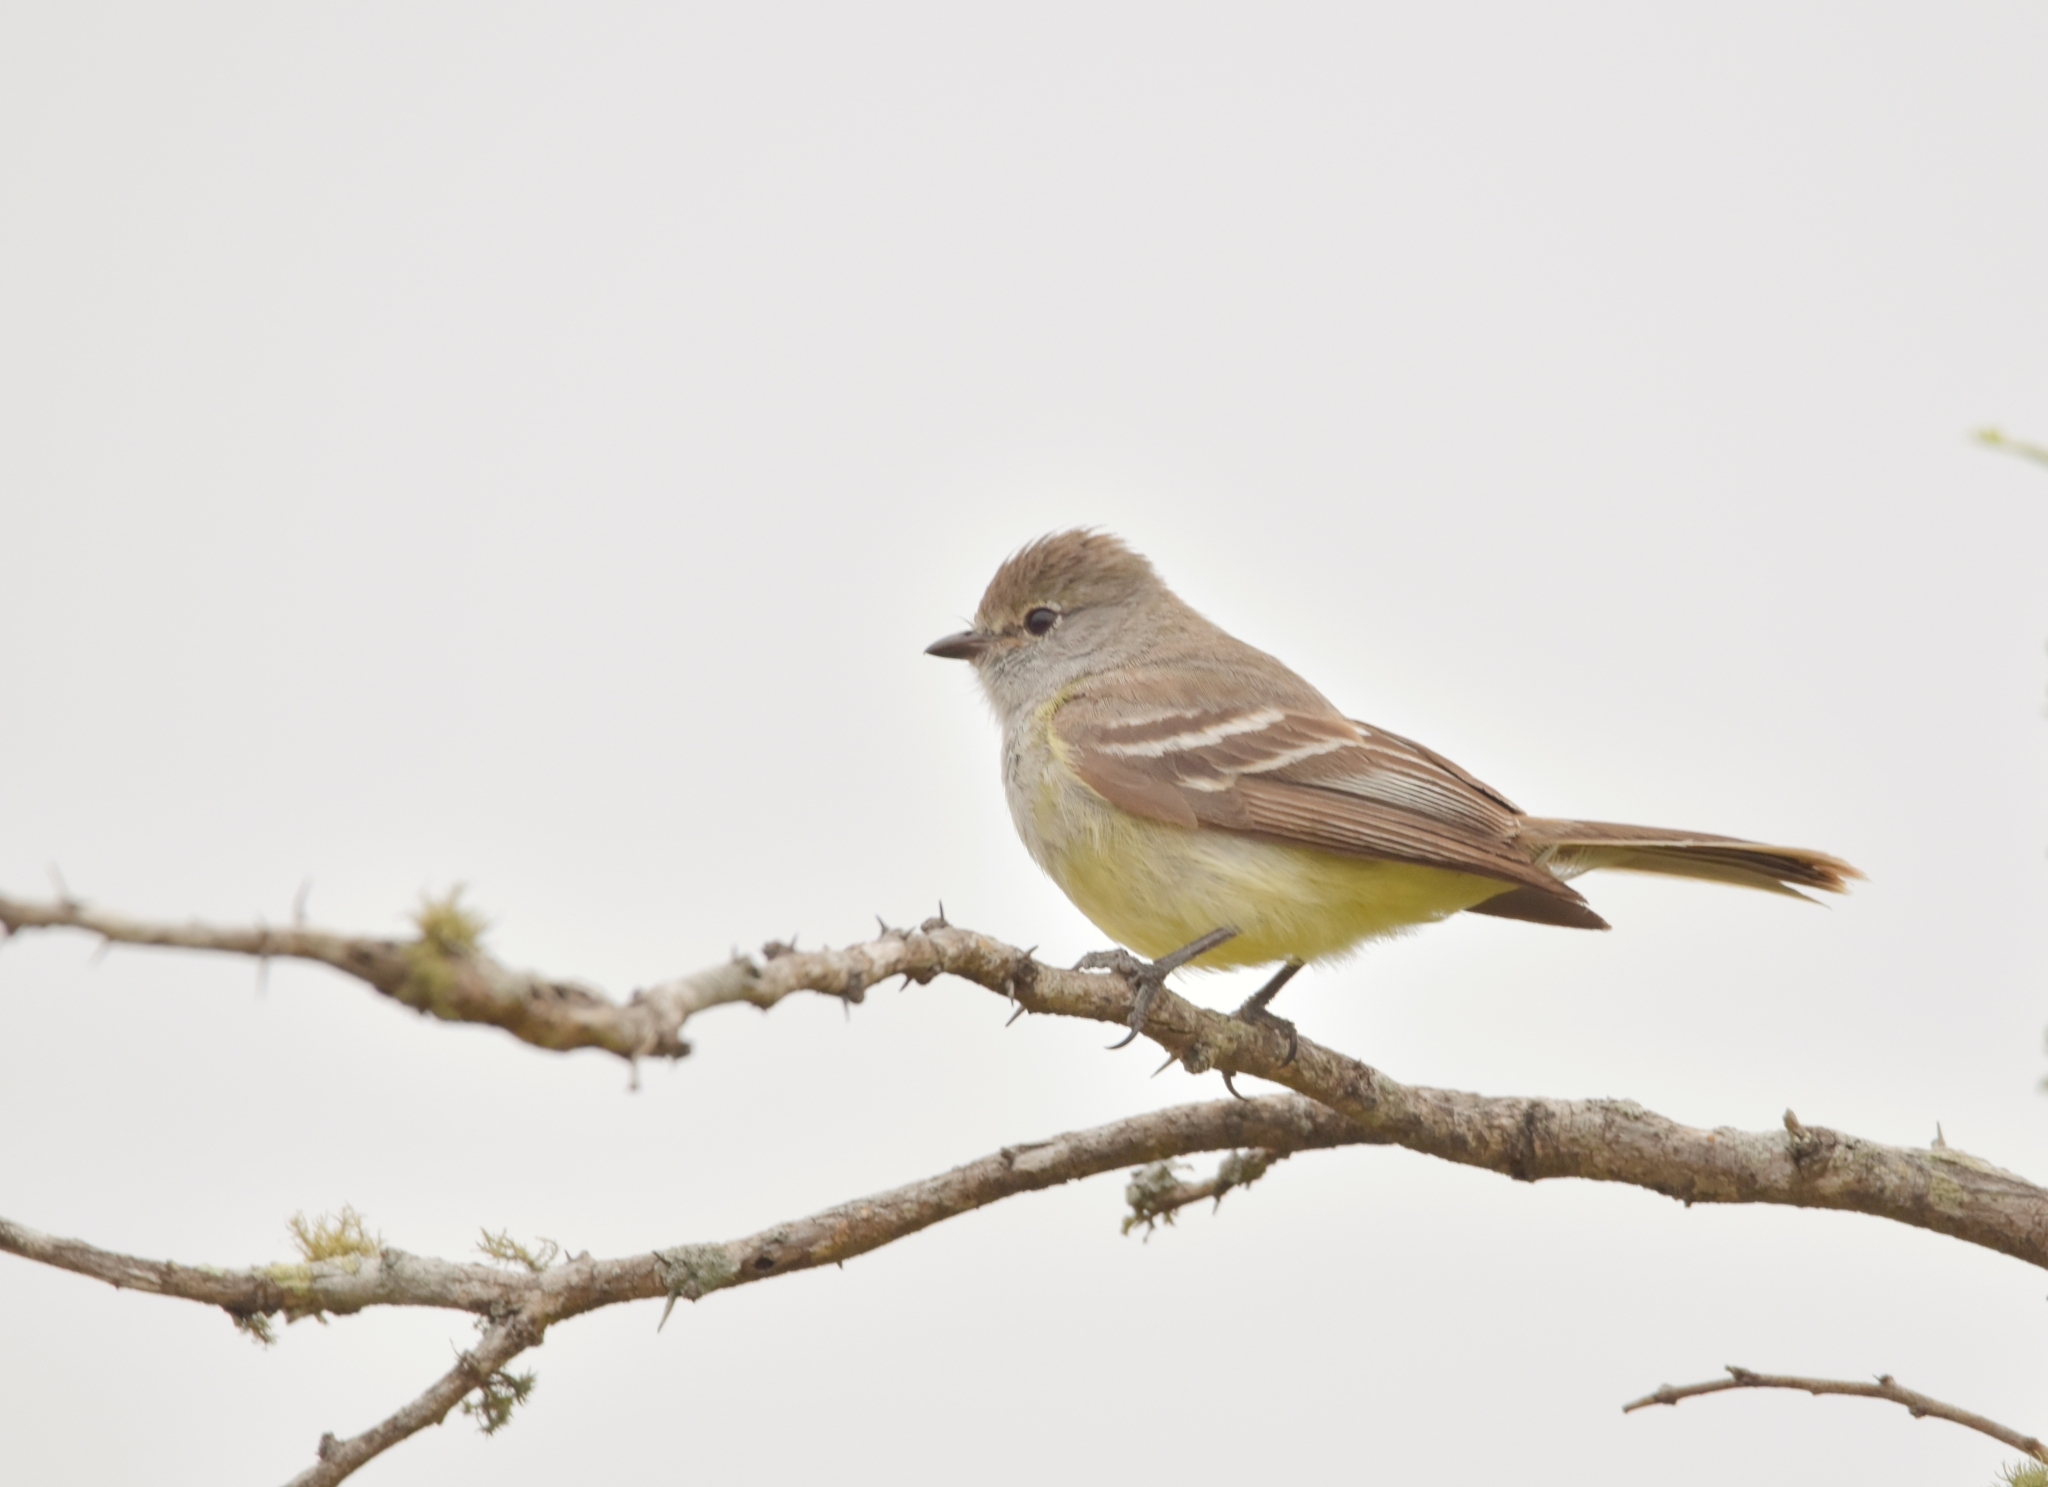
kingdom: Animalia
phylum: Chordata
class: Aves
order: Passeriformes
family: Tyrannidae
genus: Sublegatus
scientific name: Sublegatus modestus
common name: Southern scrub flycatcher
